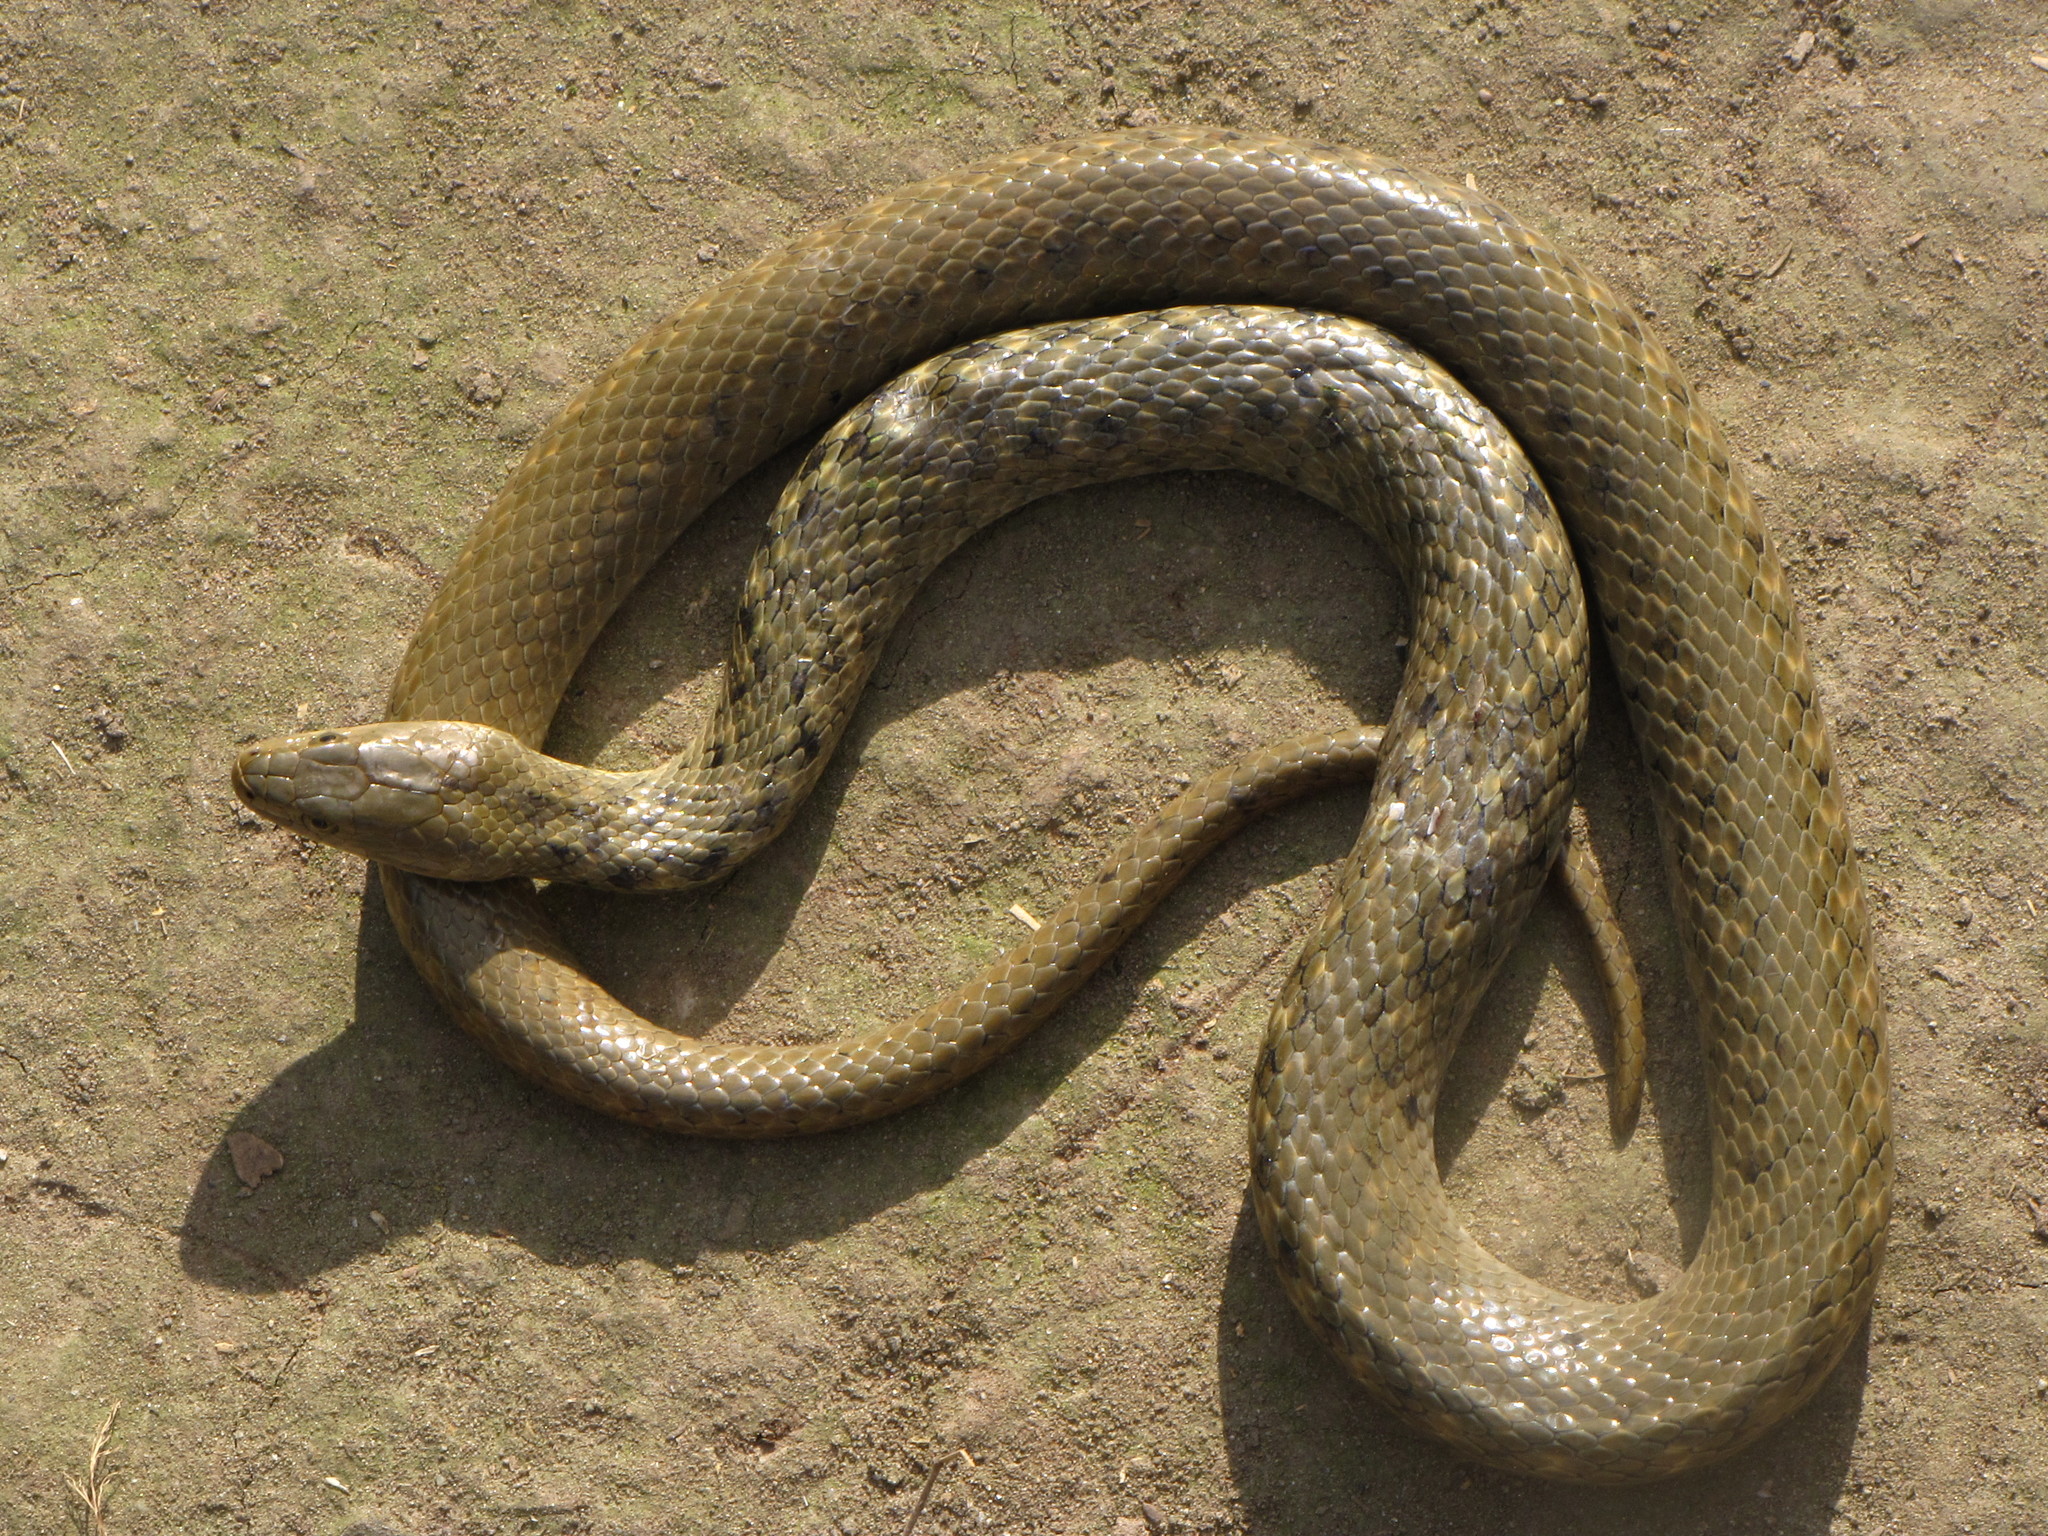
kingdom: Animalia
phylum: Chordata
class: Squamata
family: Colubridae
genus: Fowlea
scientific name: Fowlea piscator
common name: Asiatic water snake
